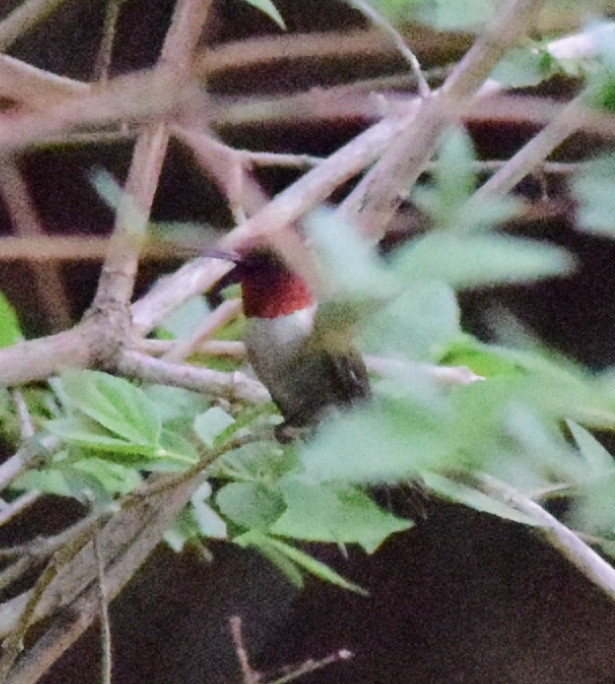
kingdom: Animalia
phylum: Chordata
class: Aves
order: Apodiformes
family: Trochilidae
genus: Archilochus
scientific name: Archilochus colubris
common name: Ruby-throated hummingbird
